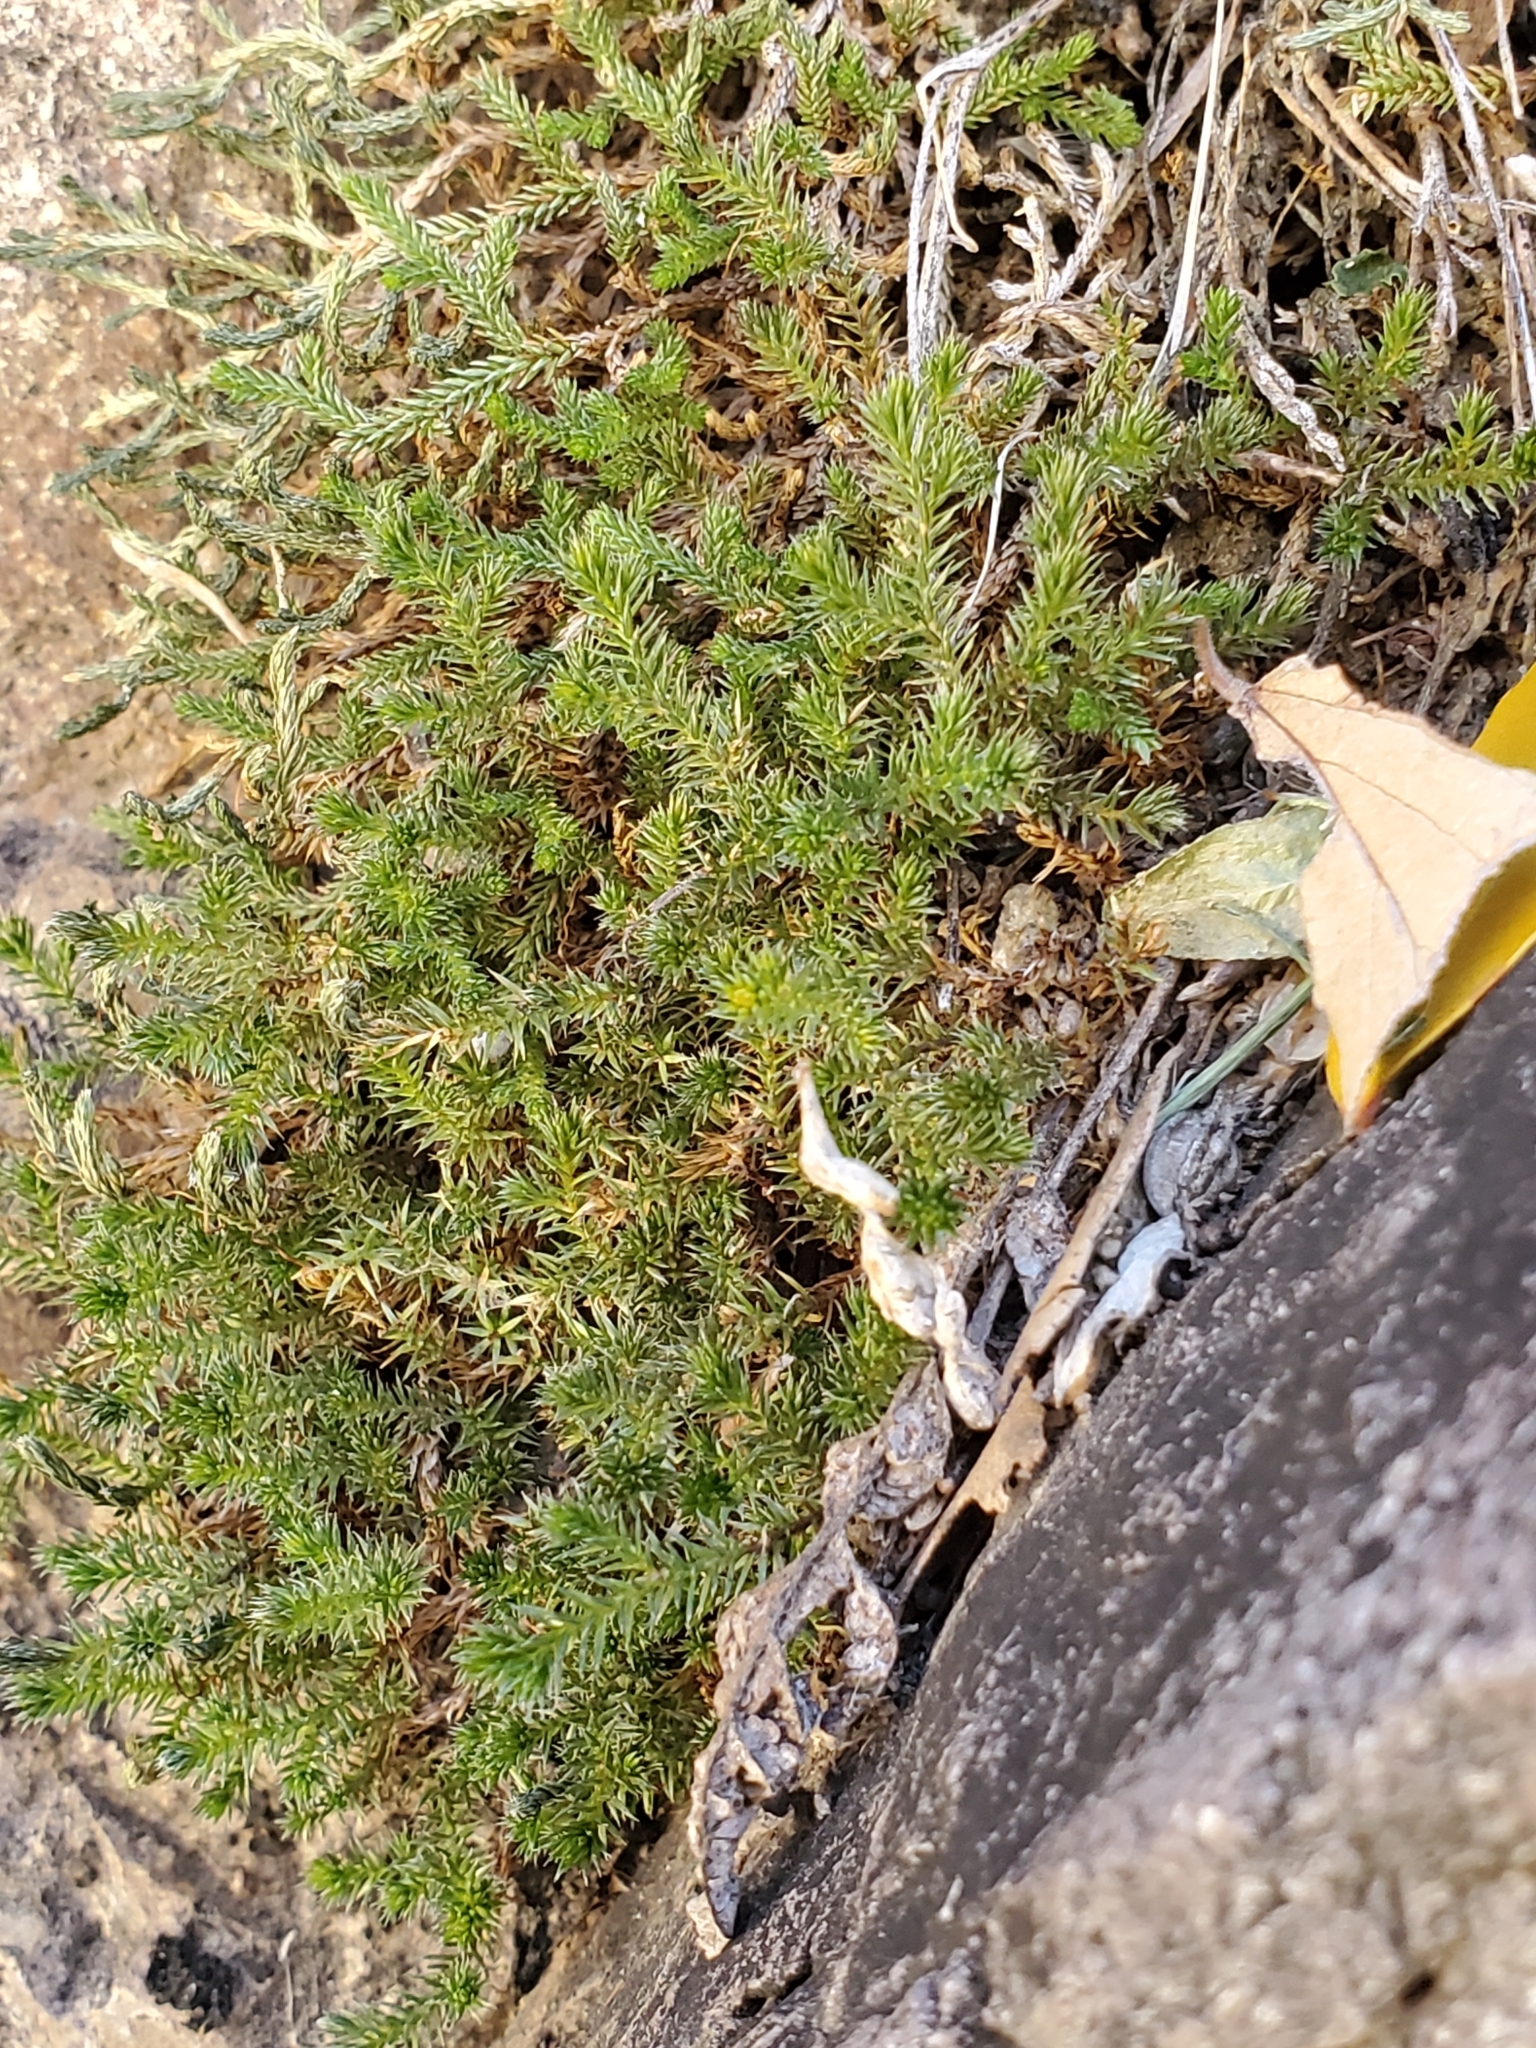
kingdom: Plantae
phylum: Tracheophyta
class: Lycopodiopsida
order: Selaginellales
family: Selaginellaceae
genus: Selaginella
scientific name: Selaginella rupincola
